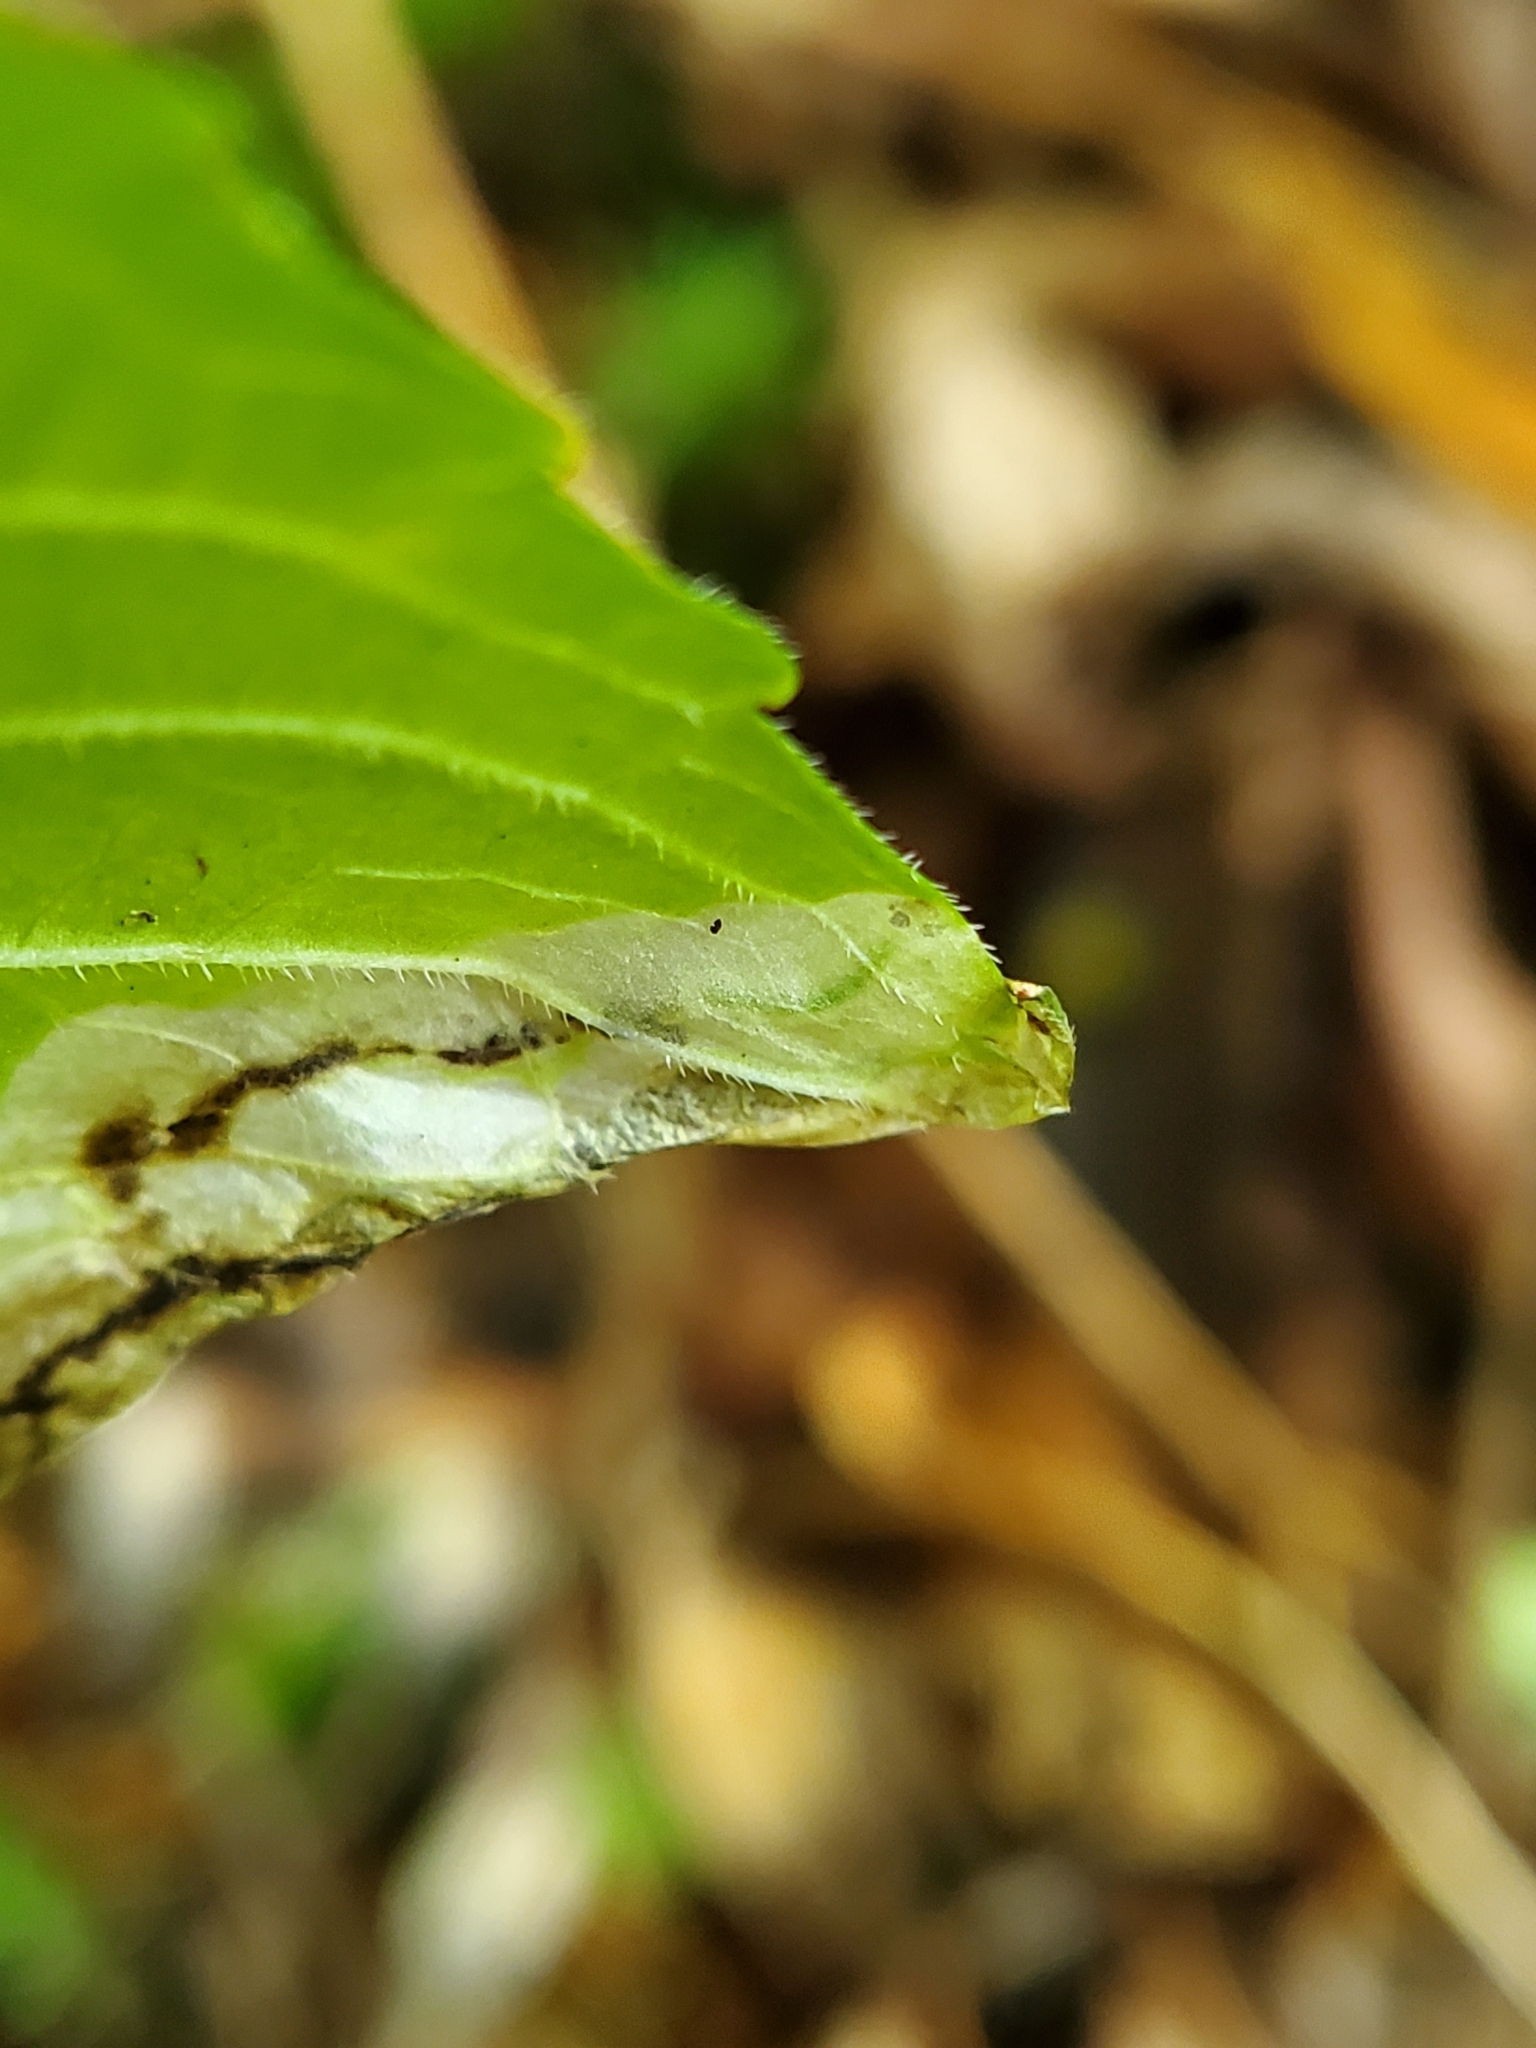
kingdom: Animalia
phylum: Arthropoda
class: Insecta
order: Hymenoptera
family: Tenthredinidae
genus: Nefusa
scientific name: Nefusa ambigua
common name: Violet leafmining sawfly
